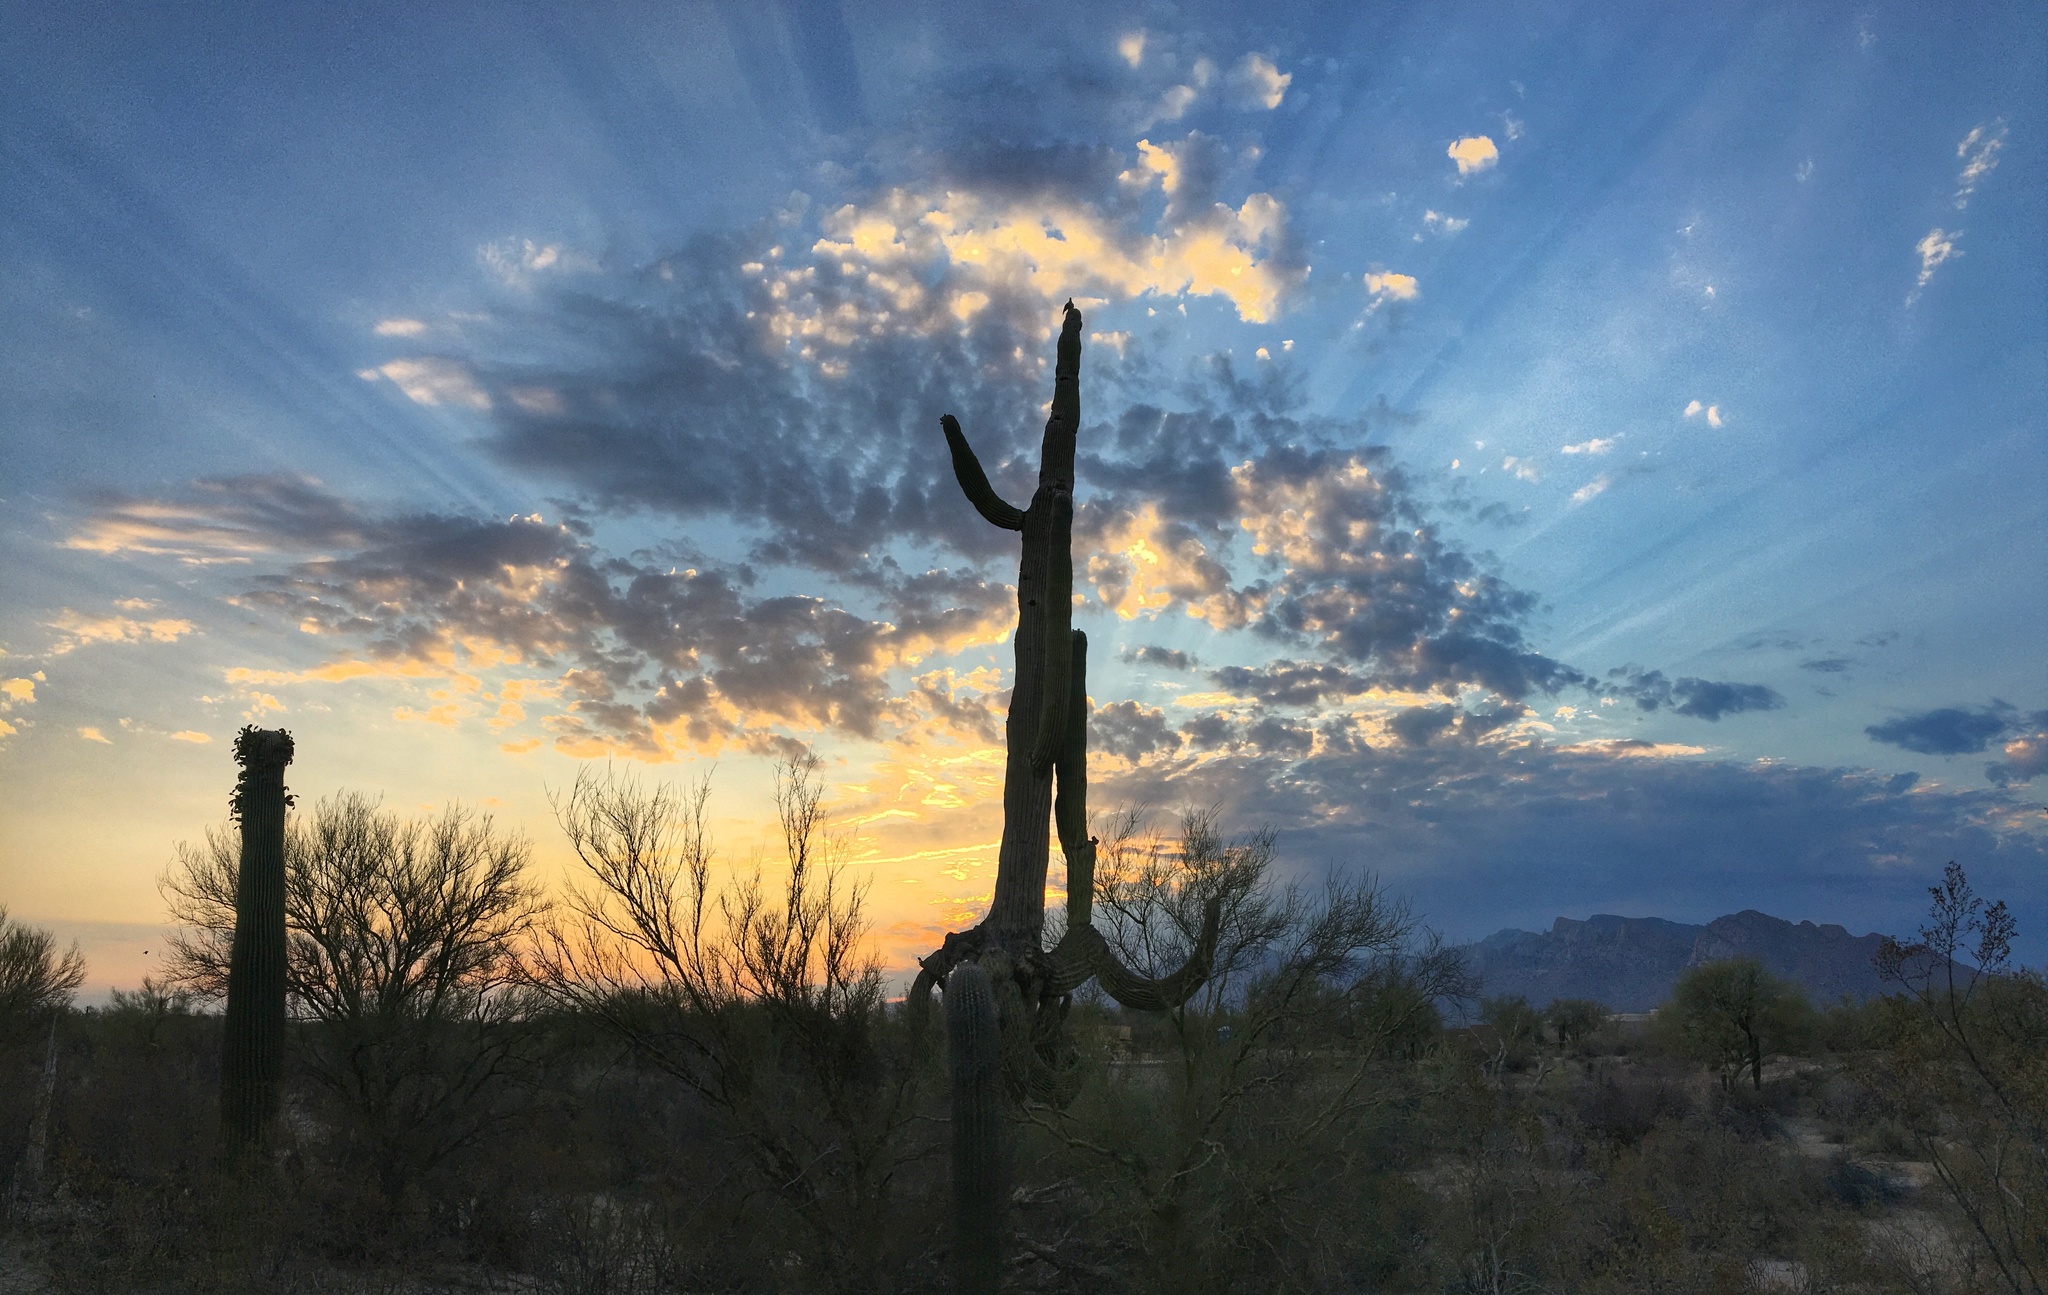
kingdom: Plantae
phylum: Tracheophyta
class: Magnoliopsida
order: Caryophyllales
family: Cactaceae
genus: Carnegiea
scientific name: Carnegiea gigantea
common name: Saguaro
